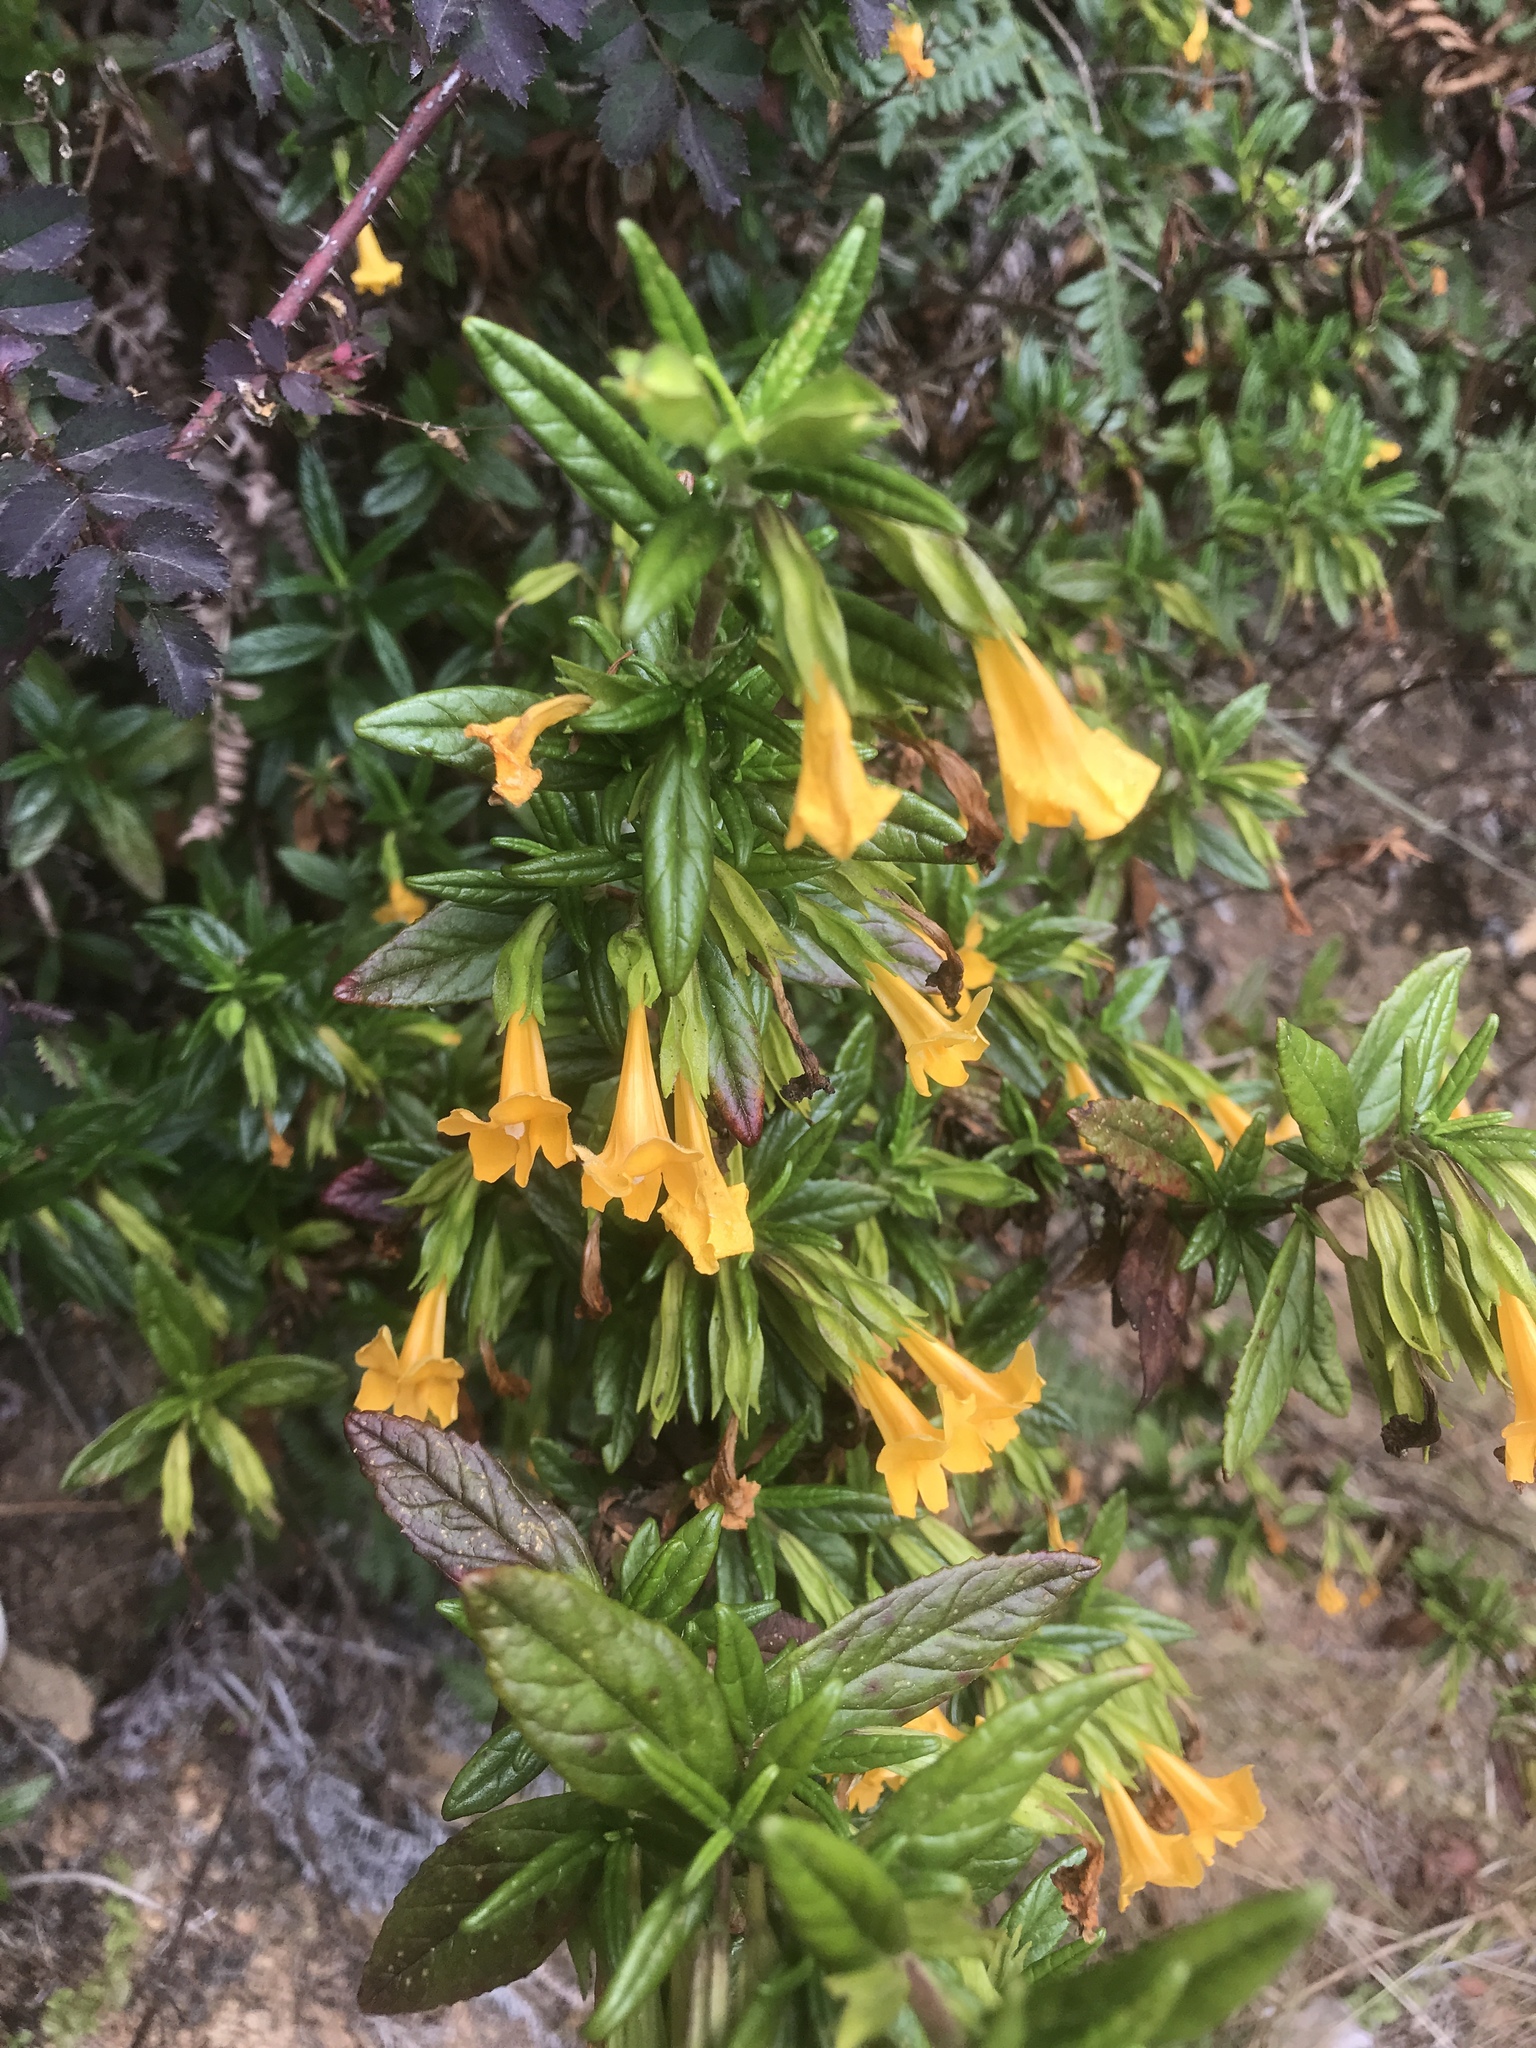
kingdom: Plantae
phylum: Tracheophyta
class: Magnoliopsida
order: Lamiales
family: Phrymaceae
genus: Diplacus
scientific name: Diplacus aurantiacus
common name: Bush monkey-flower
